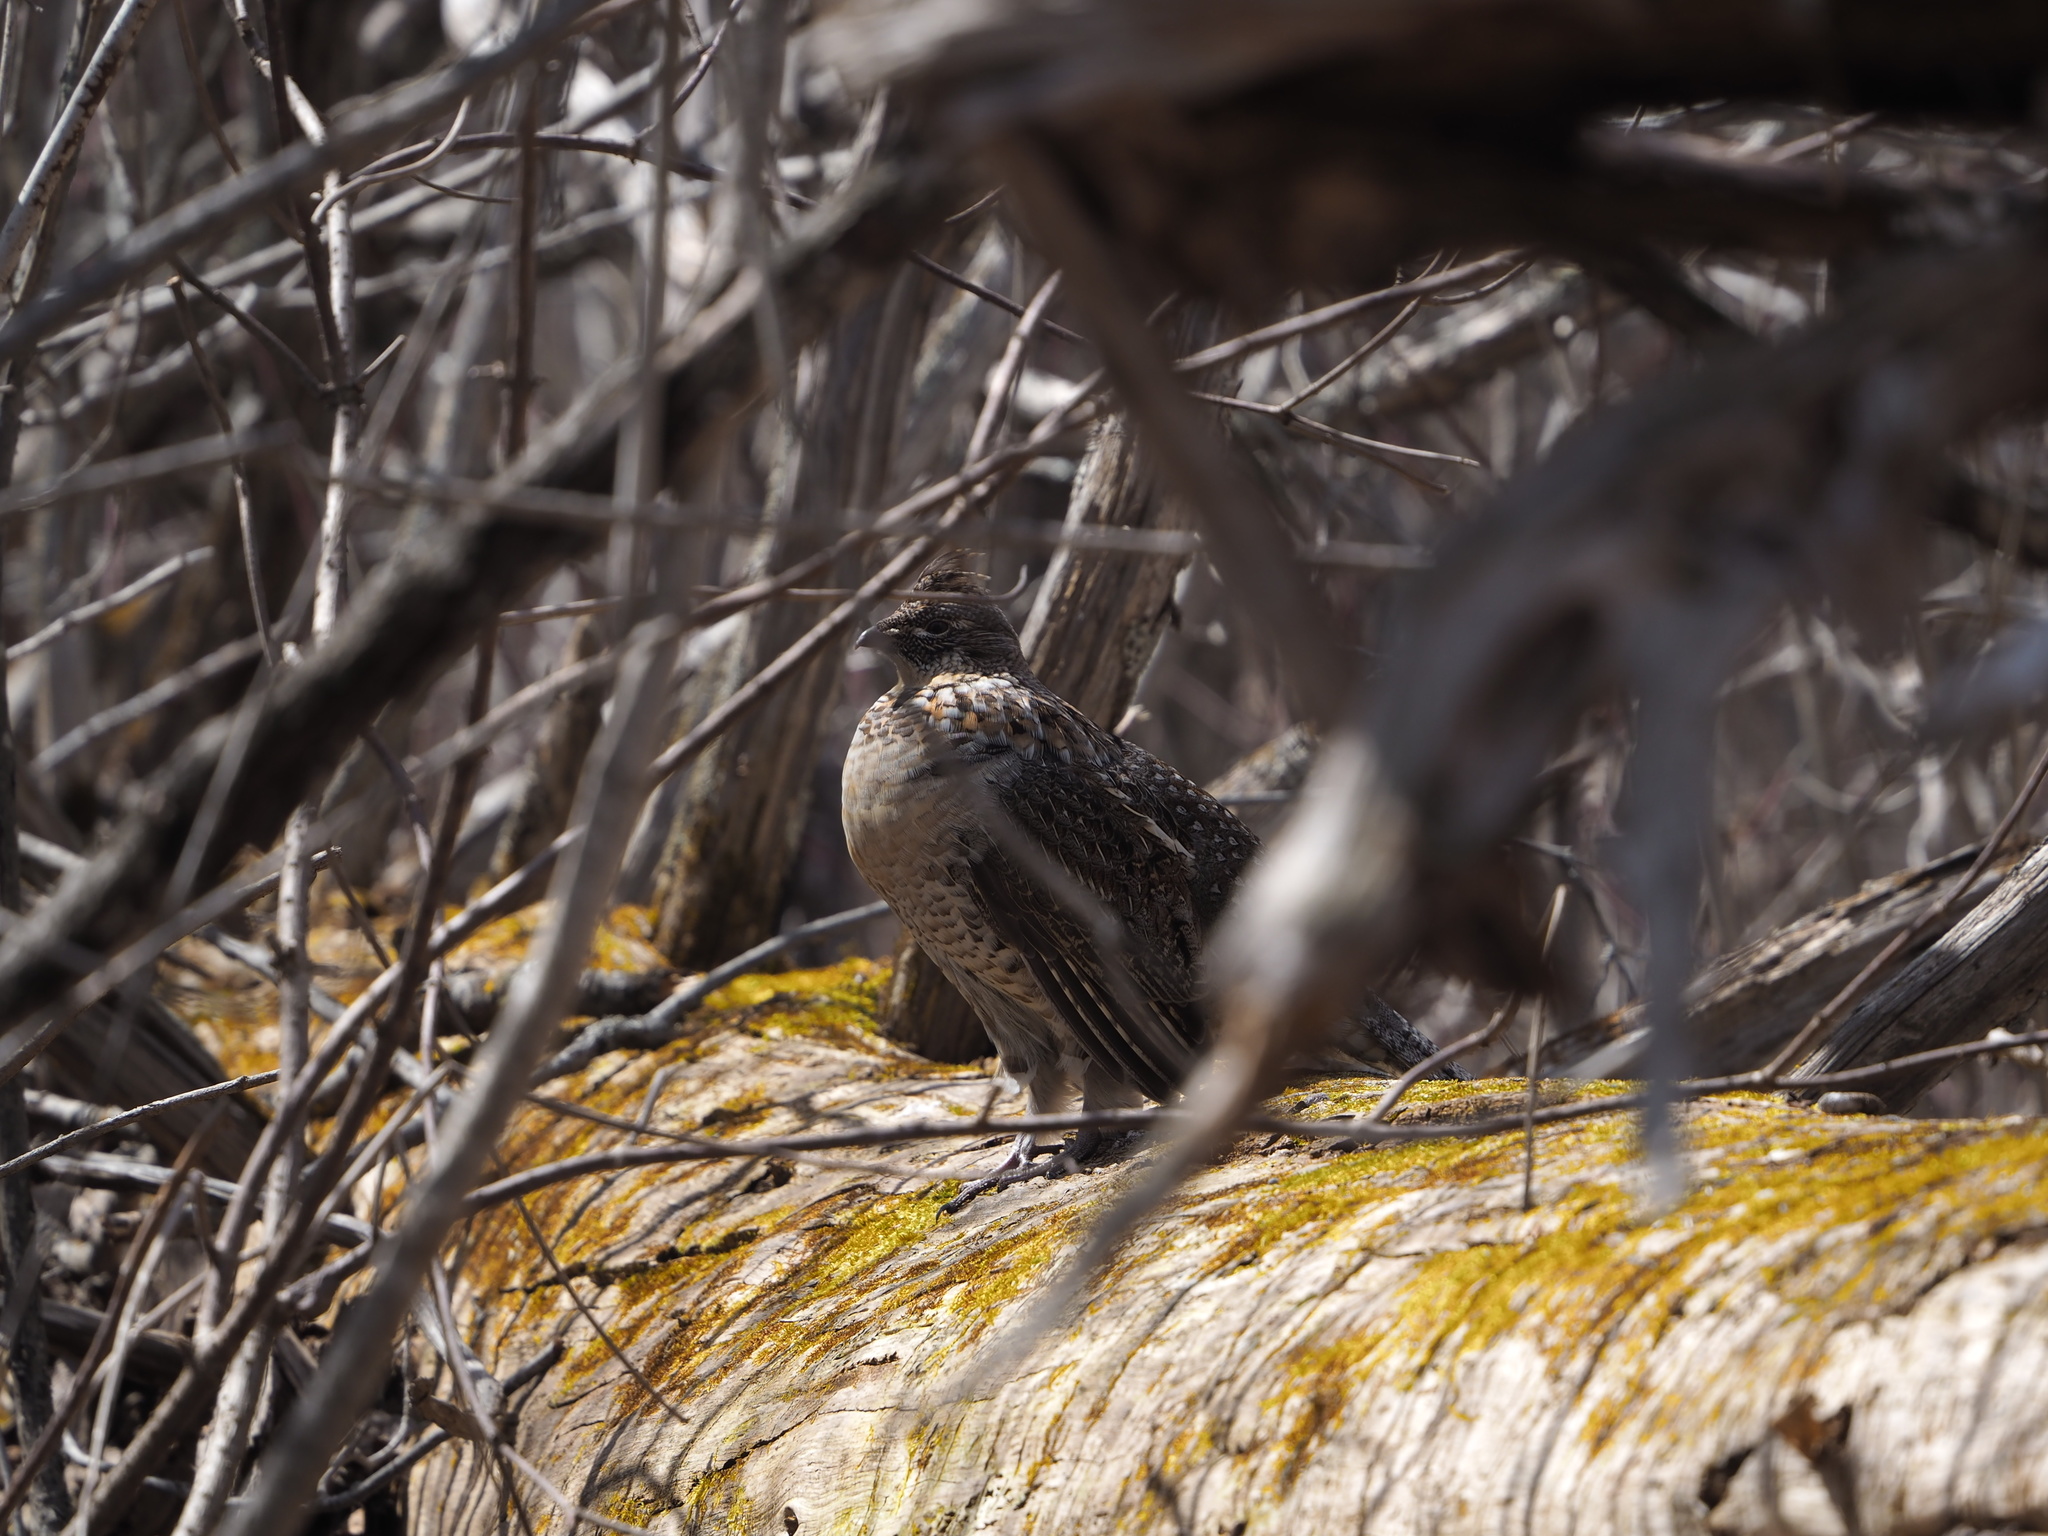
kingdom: Animalia
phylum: Chordata
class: Aves
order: Galliformes
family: Phasianidae
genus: Bonasa
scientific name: Bonasa umbellus
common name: Ruffed grouse
